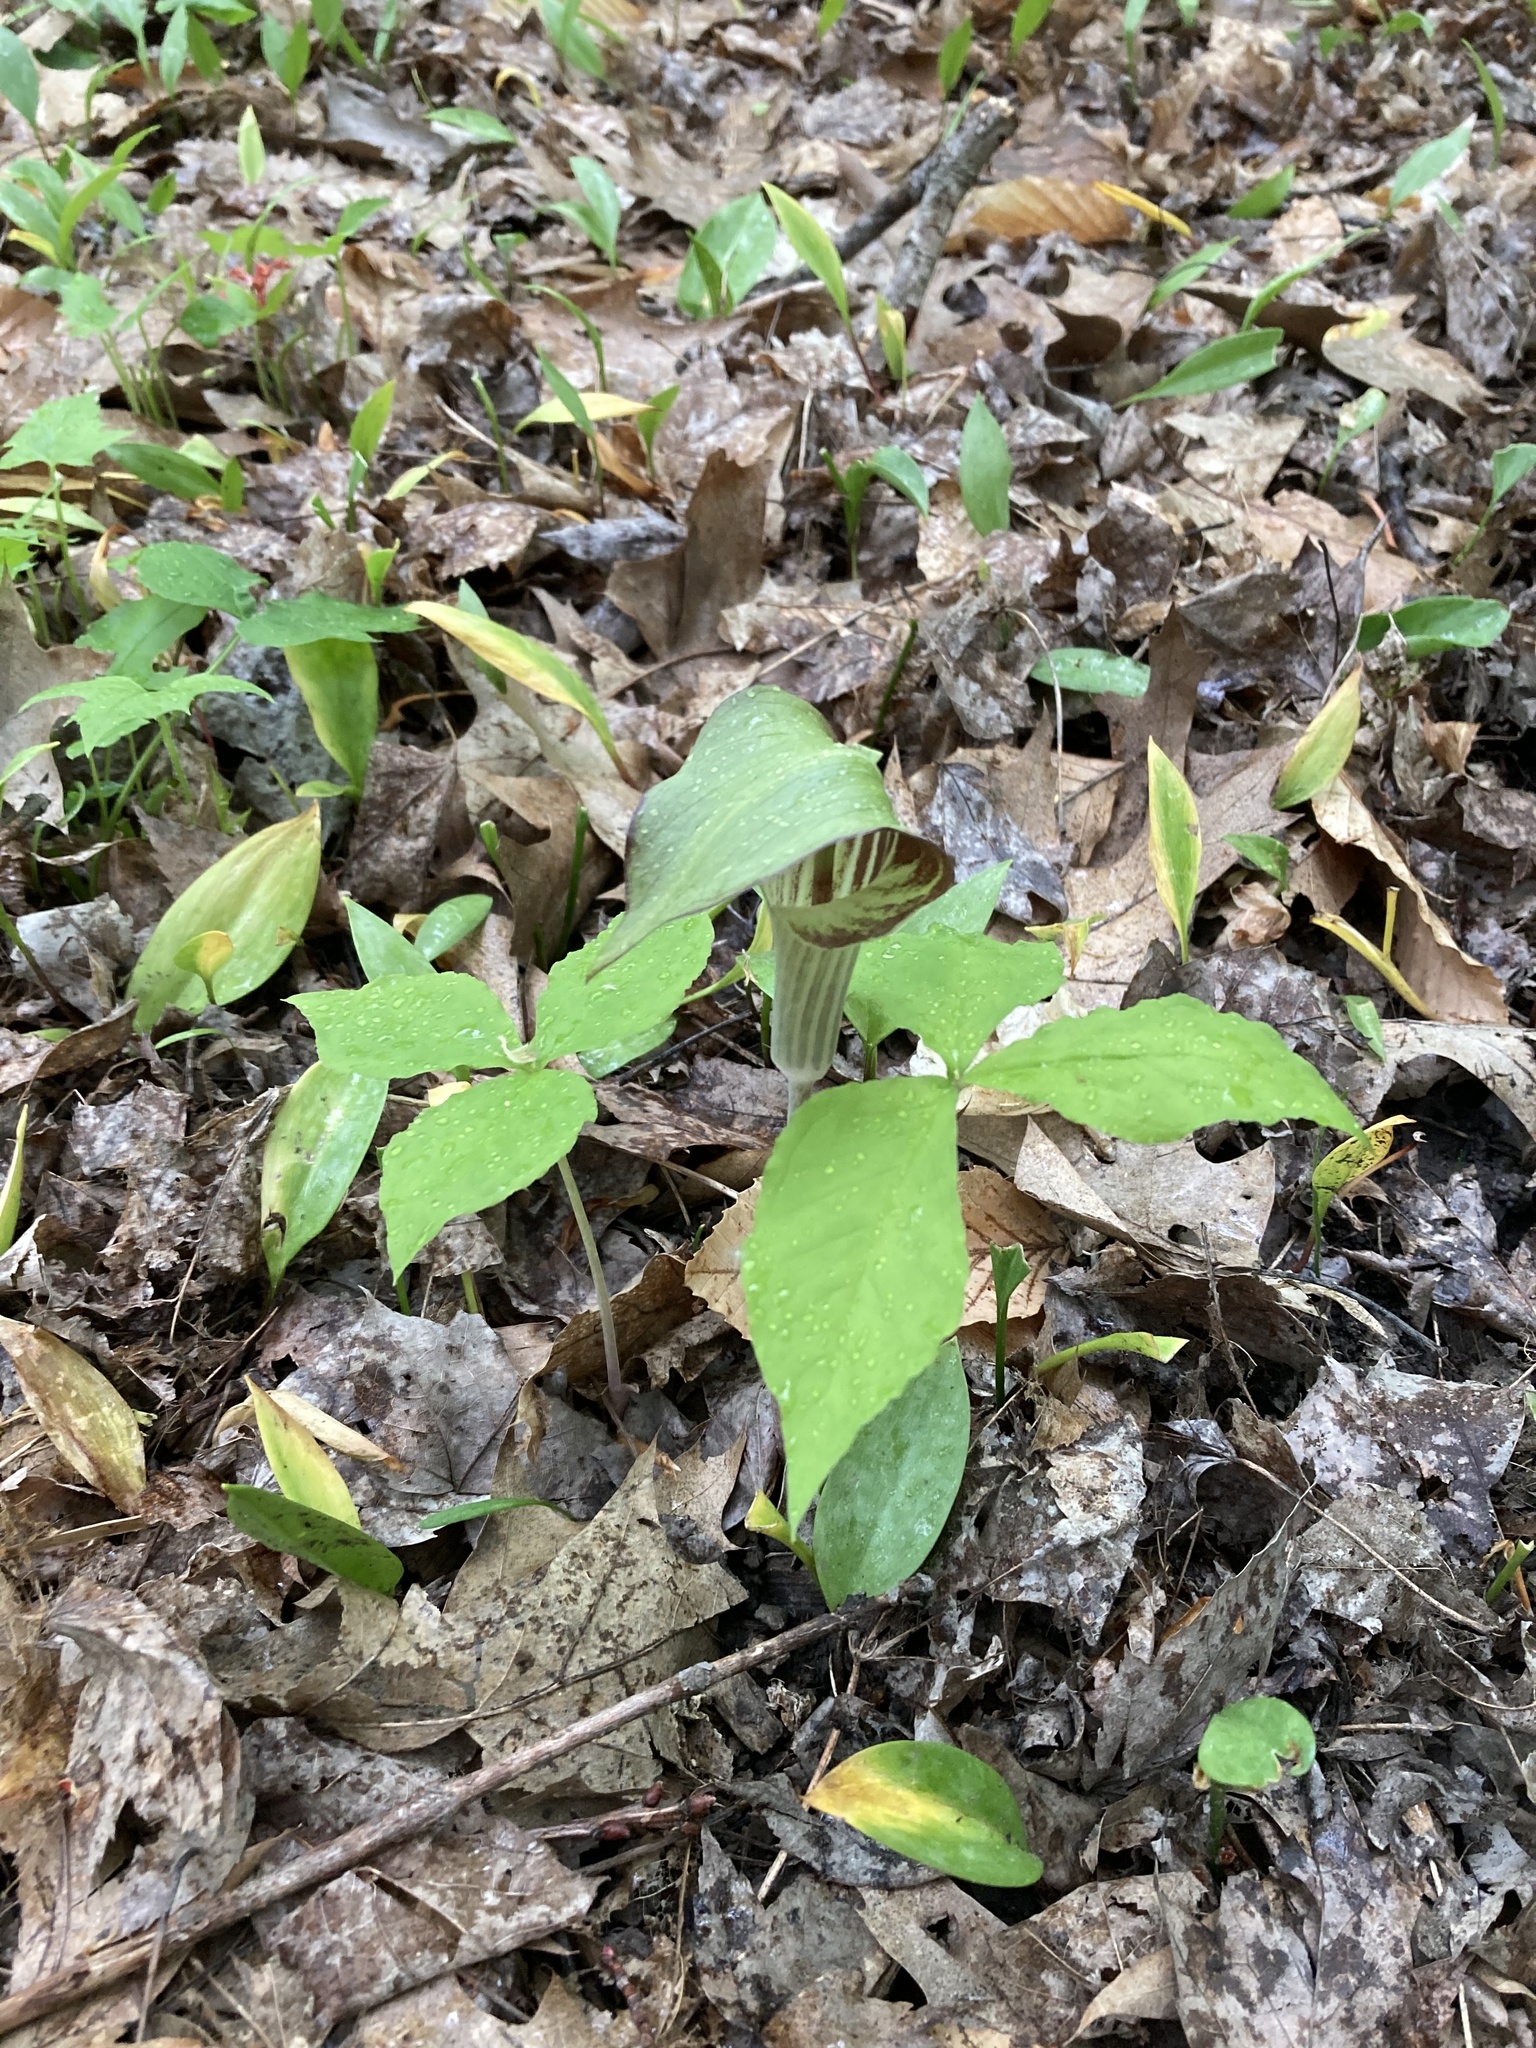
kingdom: Plantae
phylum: Tracheophyta
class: Liliopsida
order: Alismatales
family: Araceae
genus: Arisaema
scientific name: Arisaema triphyllum
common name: Jack-in-the-pulpit
